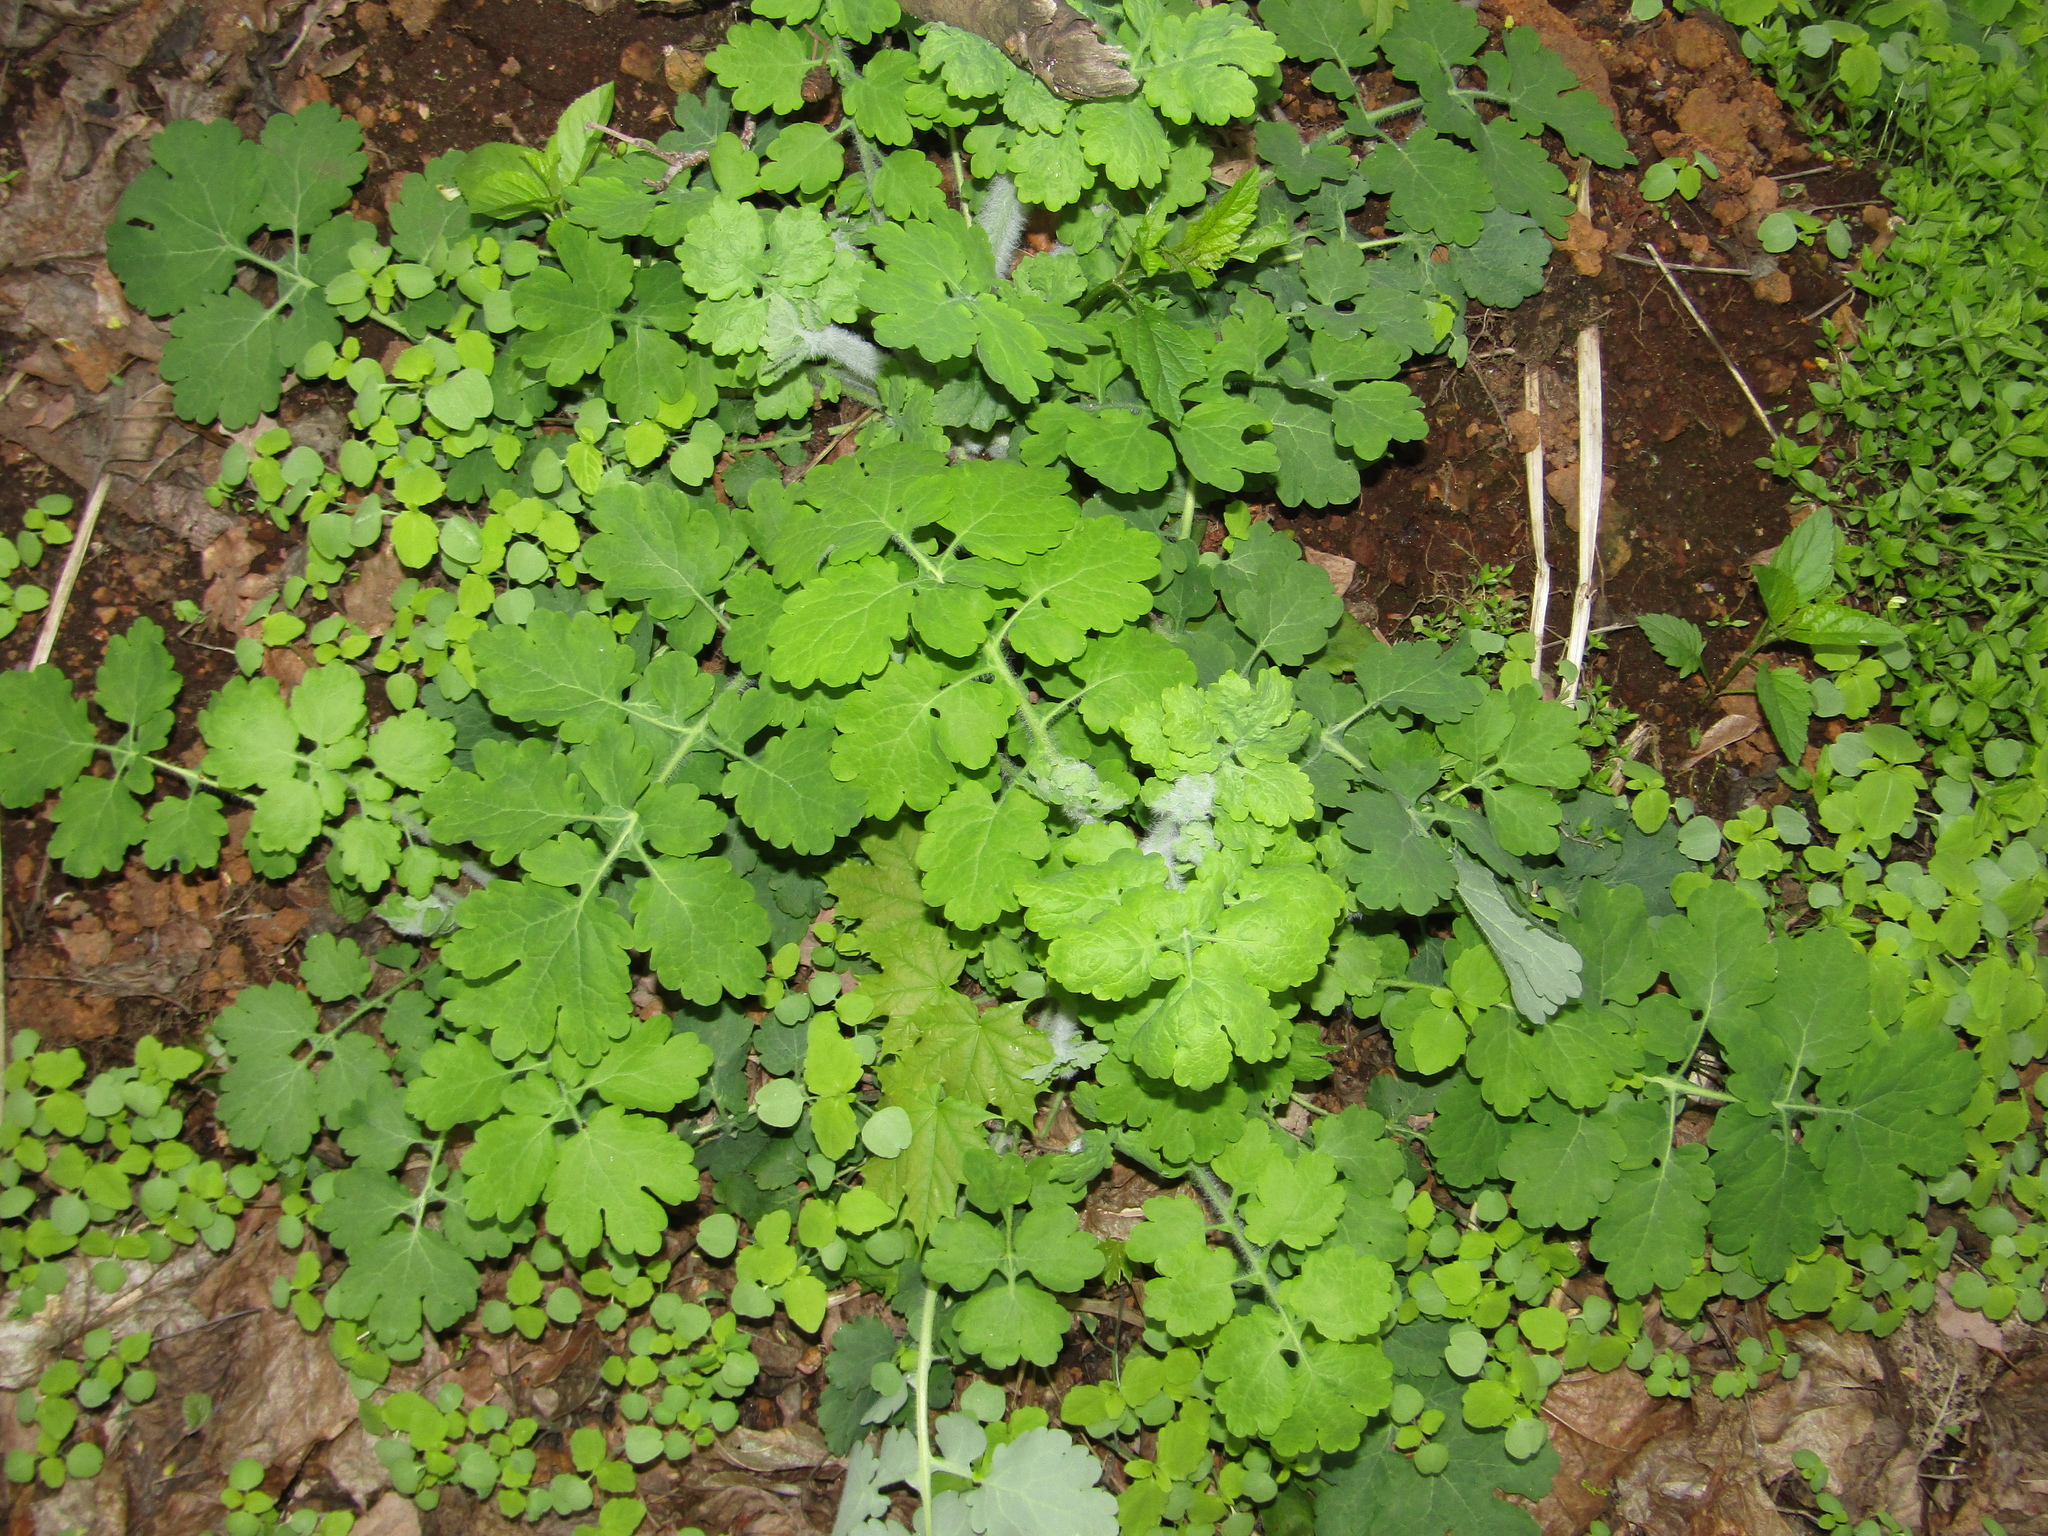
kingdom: Plantae
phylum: Tracheophyta
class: Magnoliopsida
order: Ranunculales
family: Papaveraceae
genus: Chelidonium
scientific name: Chelidonium majus
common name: Greater celandine
